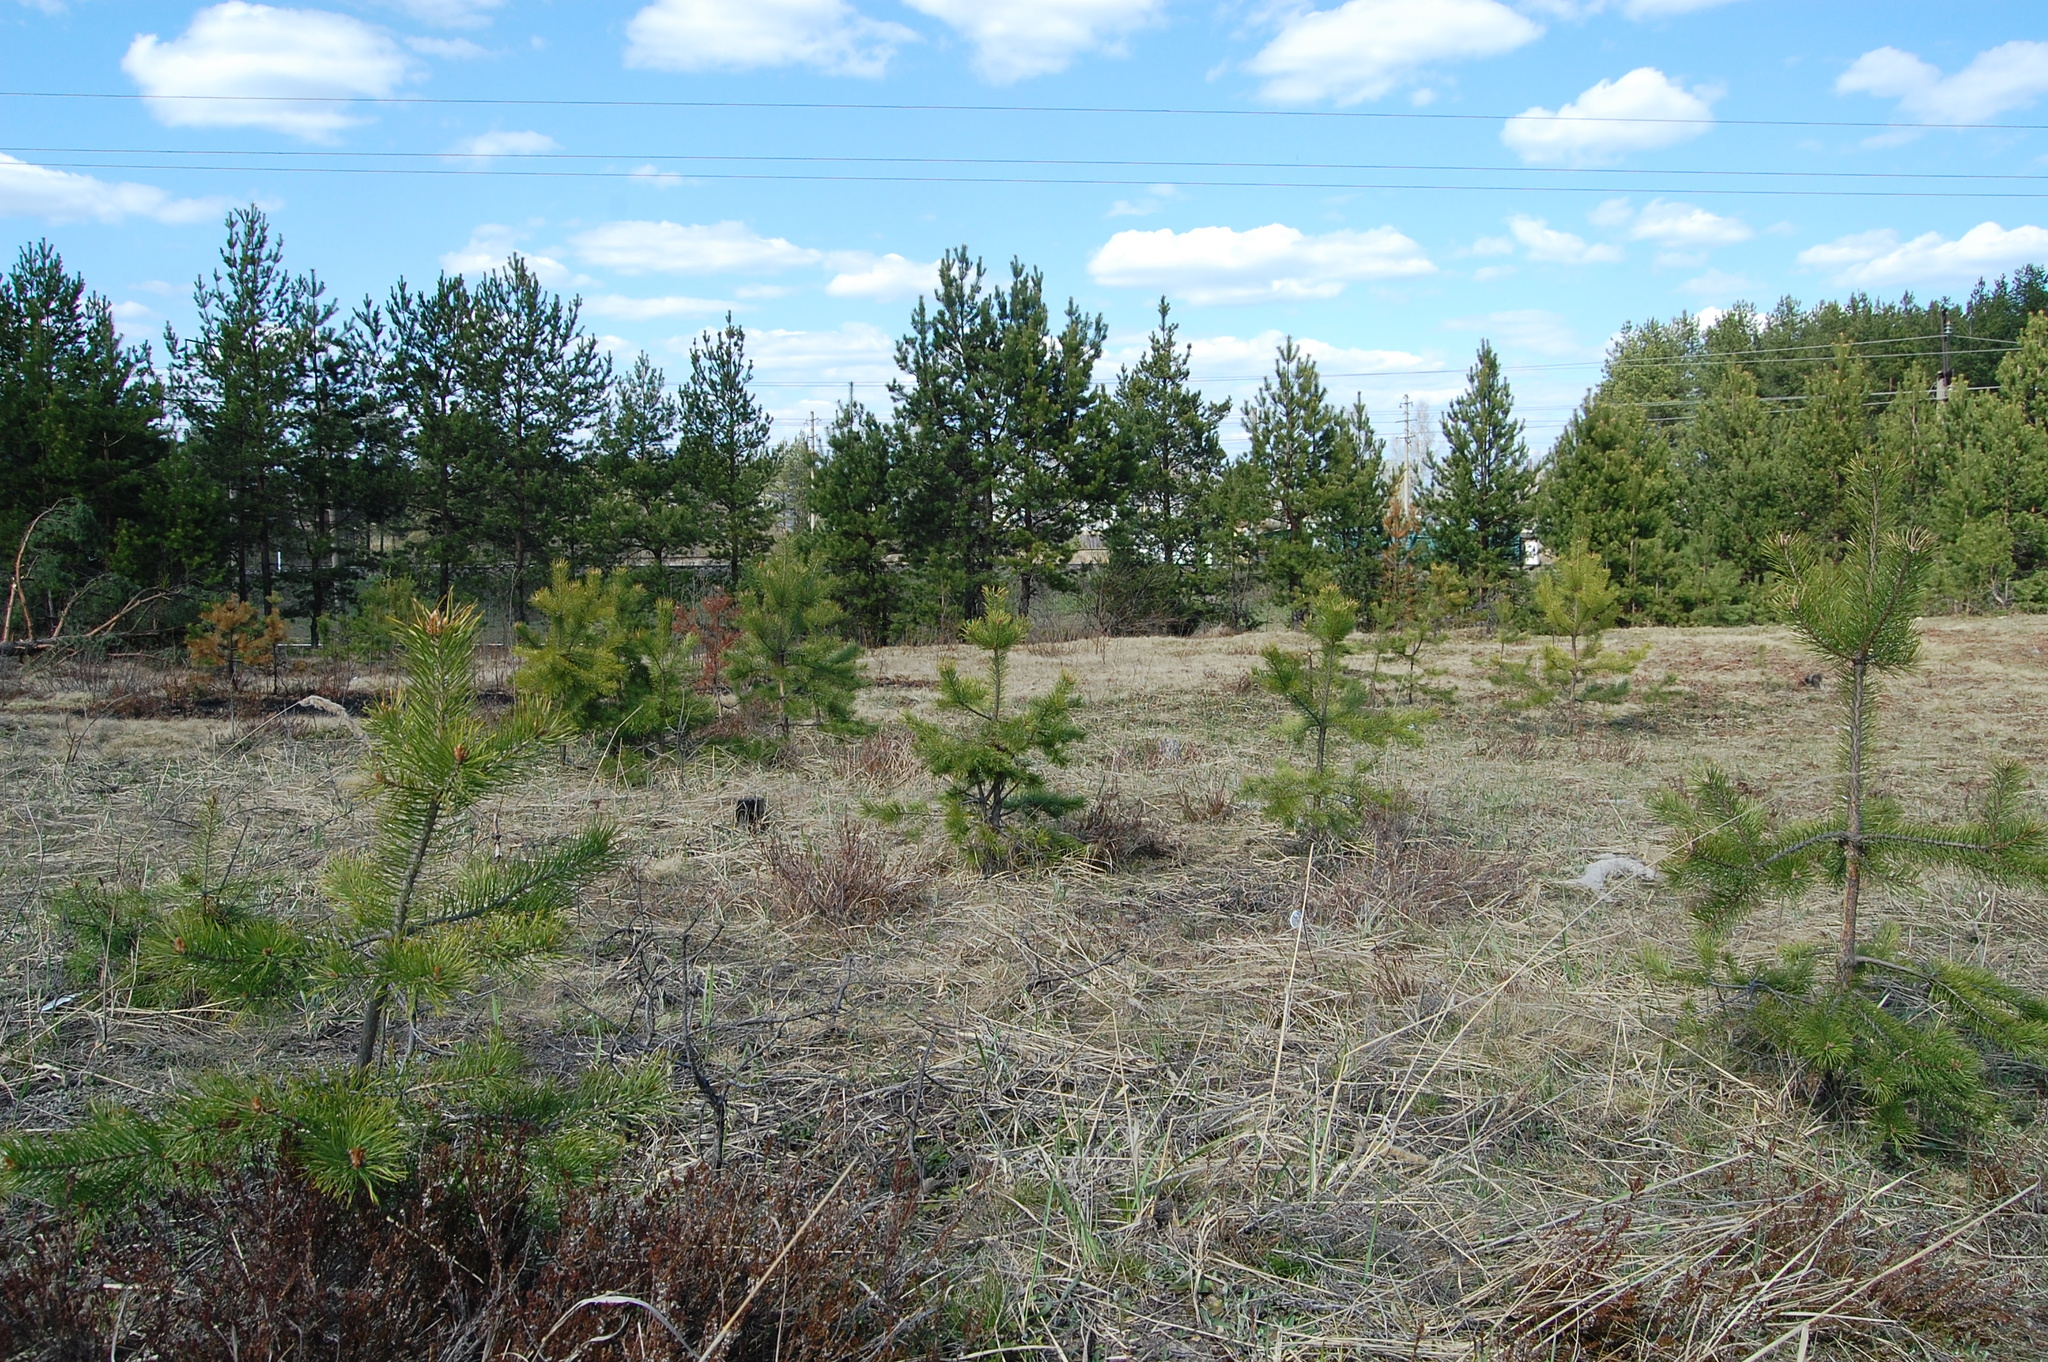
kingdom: Plantae
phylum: Tracheophyta
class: Pinopsida
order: Pinales
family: Pinaceae
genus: Pinus
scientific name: Pinus sylvestris
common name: Scots pine
